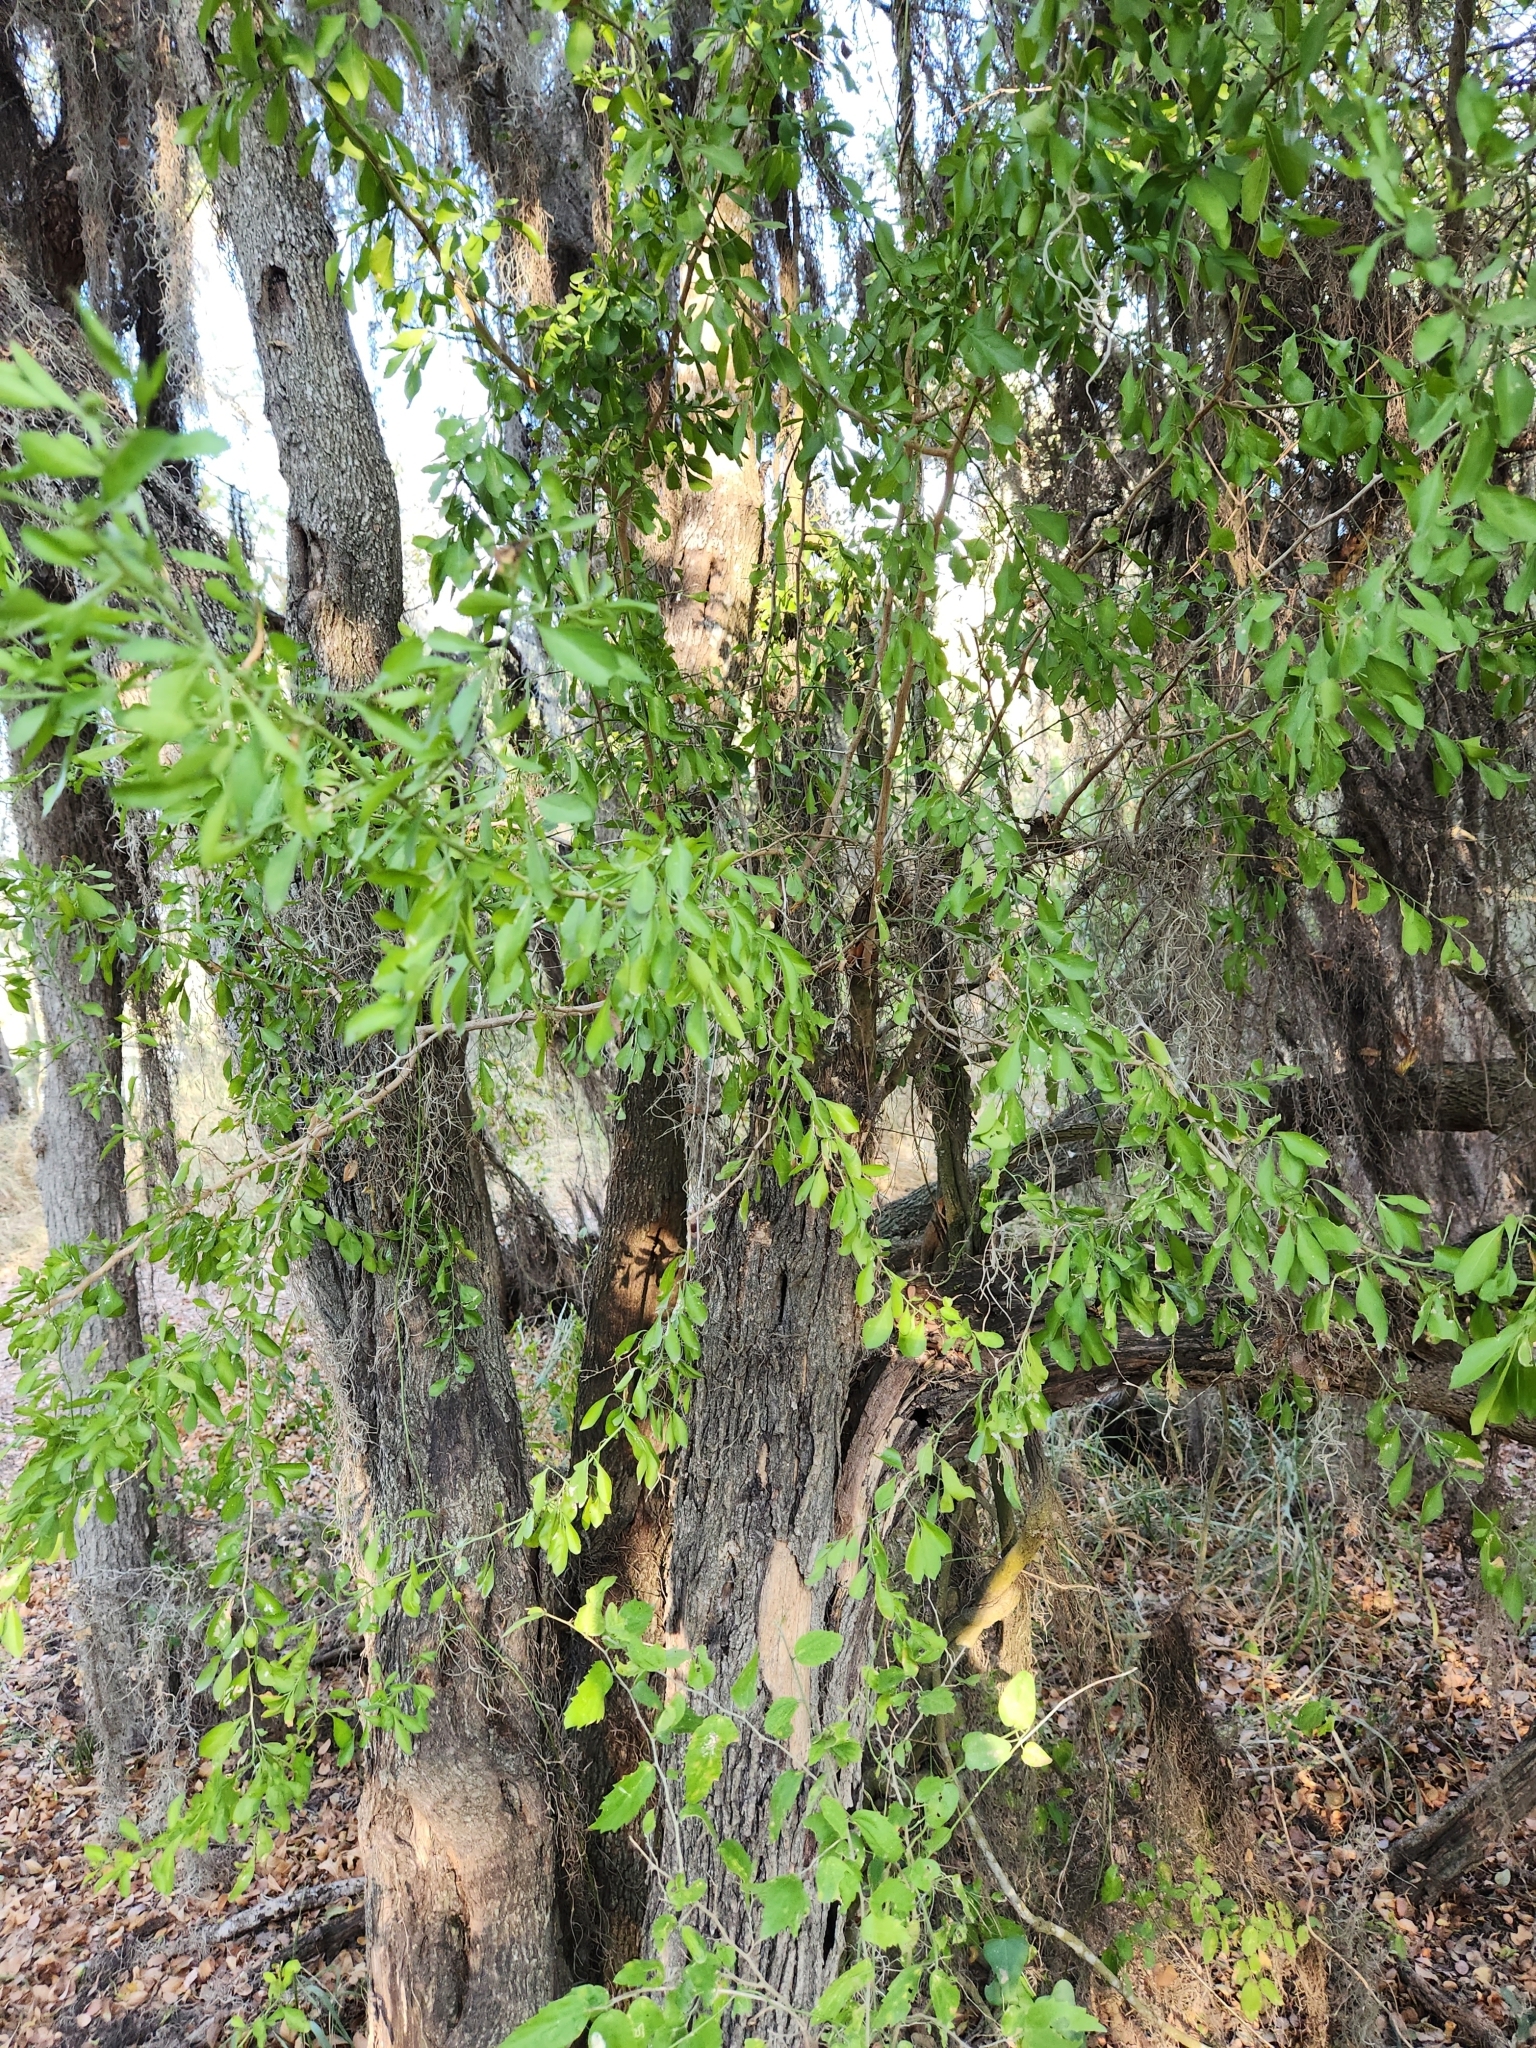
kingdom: Plantae
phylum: Tracheophyta
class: Magnoliopsida
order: Rosales
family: Rhamnaceae
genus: Condalia
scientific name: Condalia hookeri
